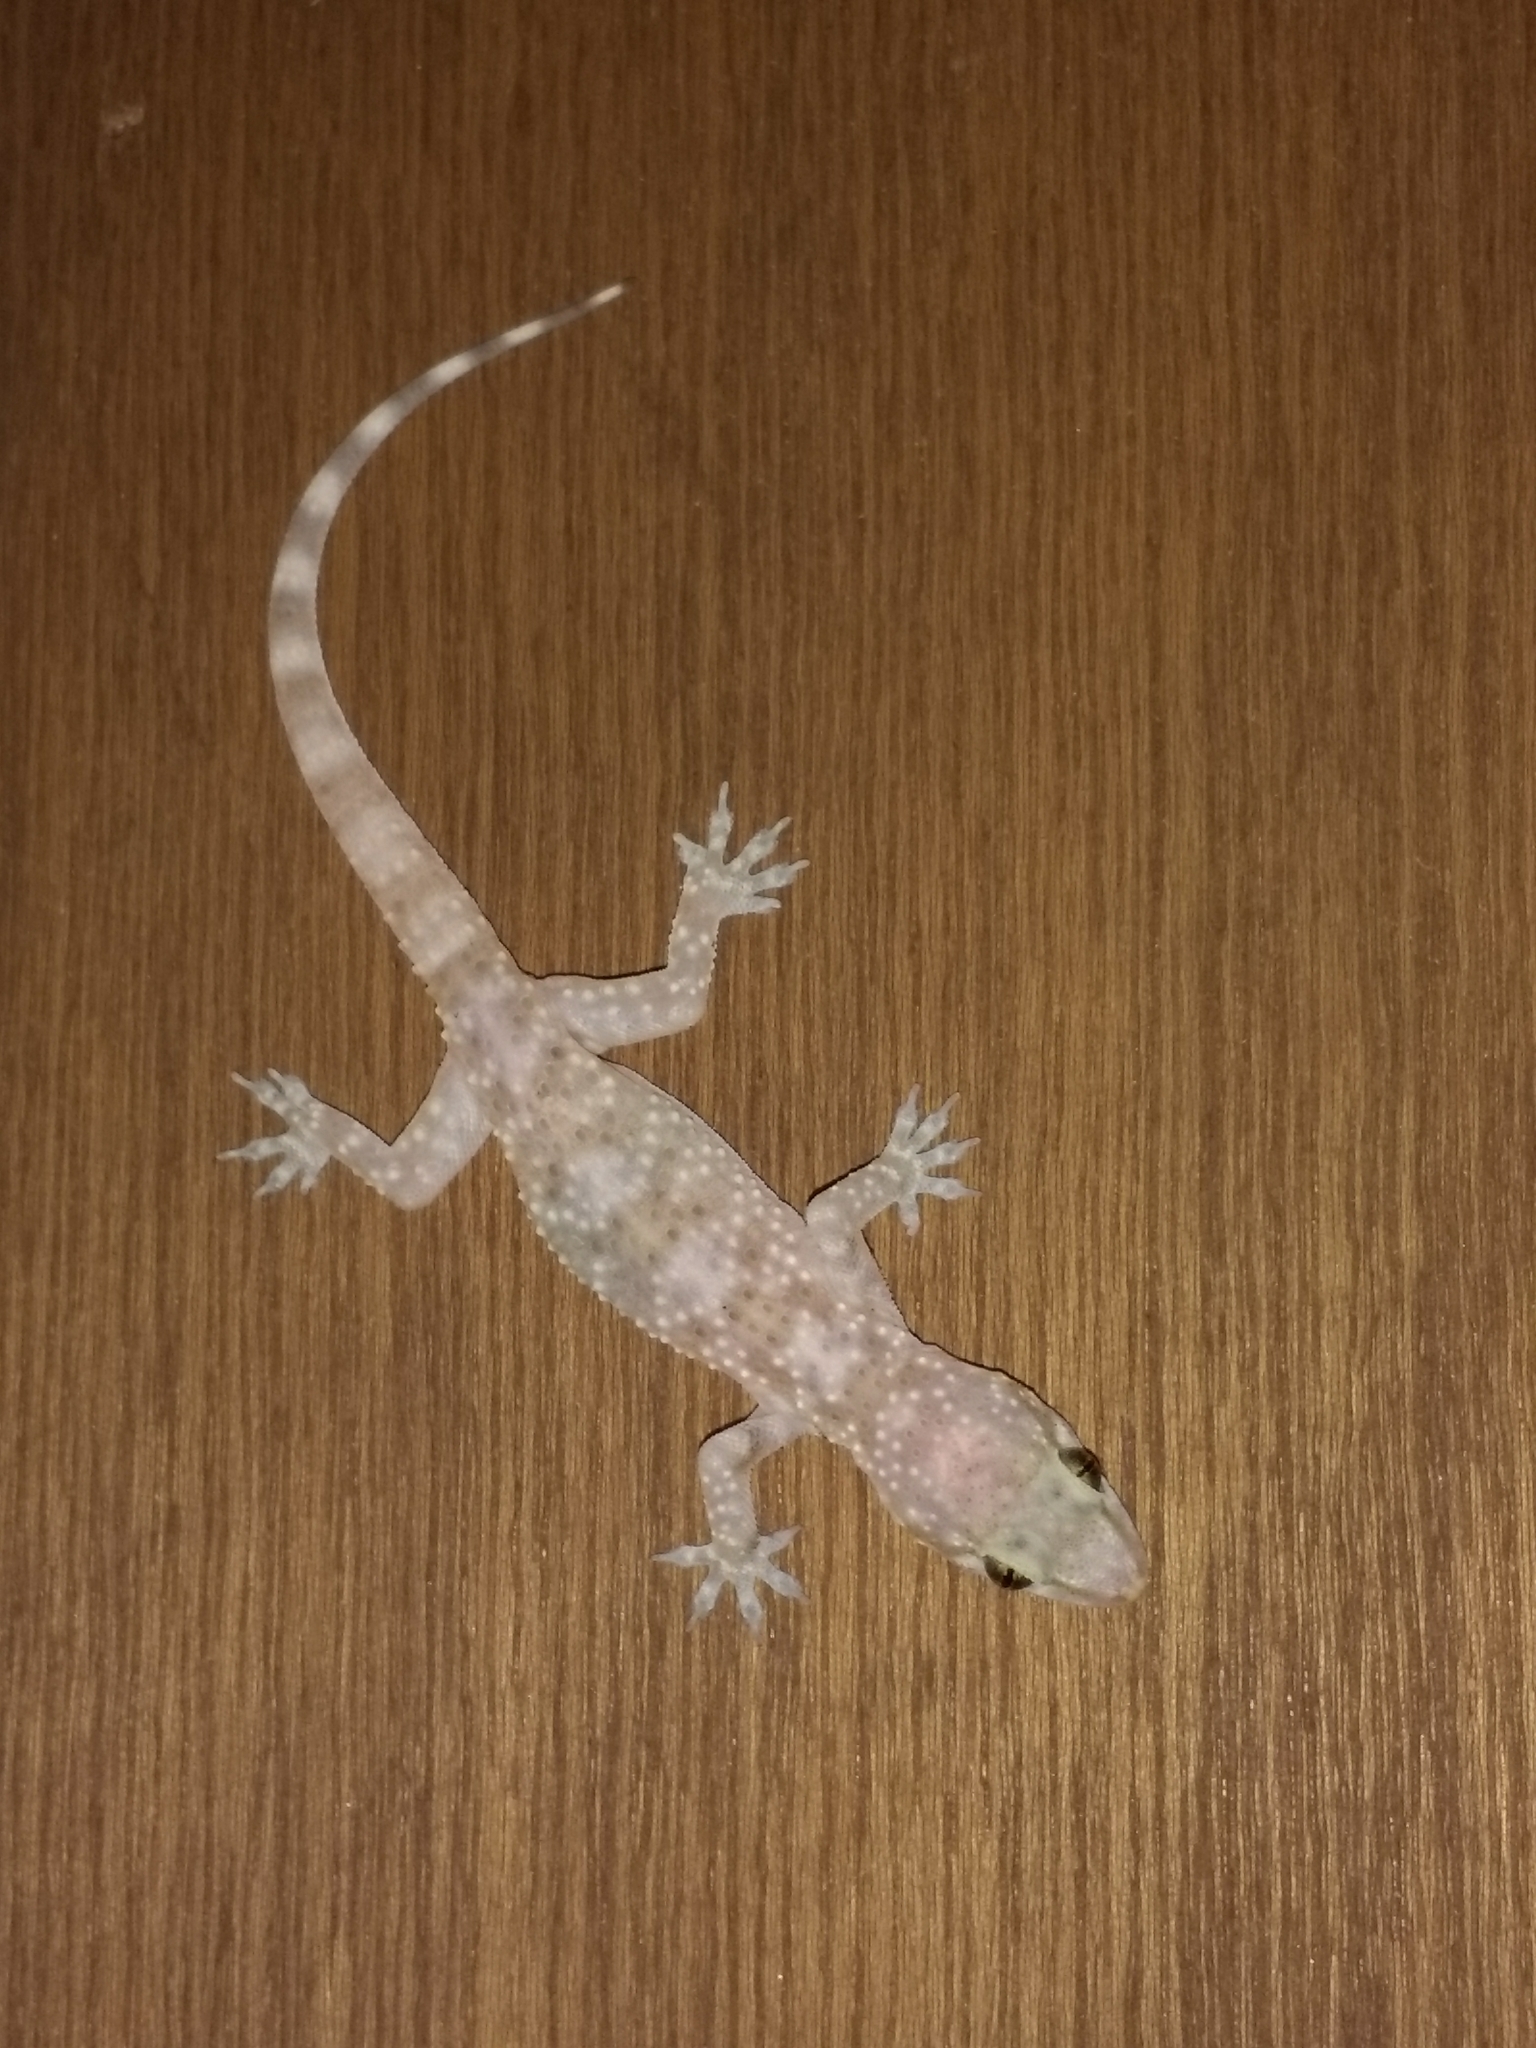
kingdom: Animalia
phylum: Chordata
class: Squamata
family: Gekkonidae
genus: Hemidactylus
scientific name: Hemidactylus turcicus
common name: Turkish gecko
